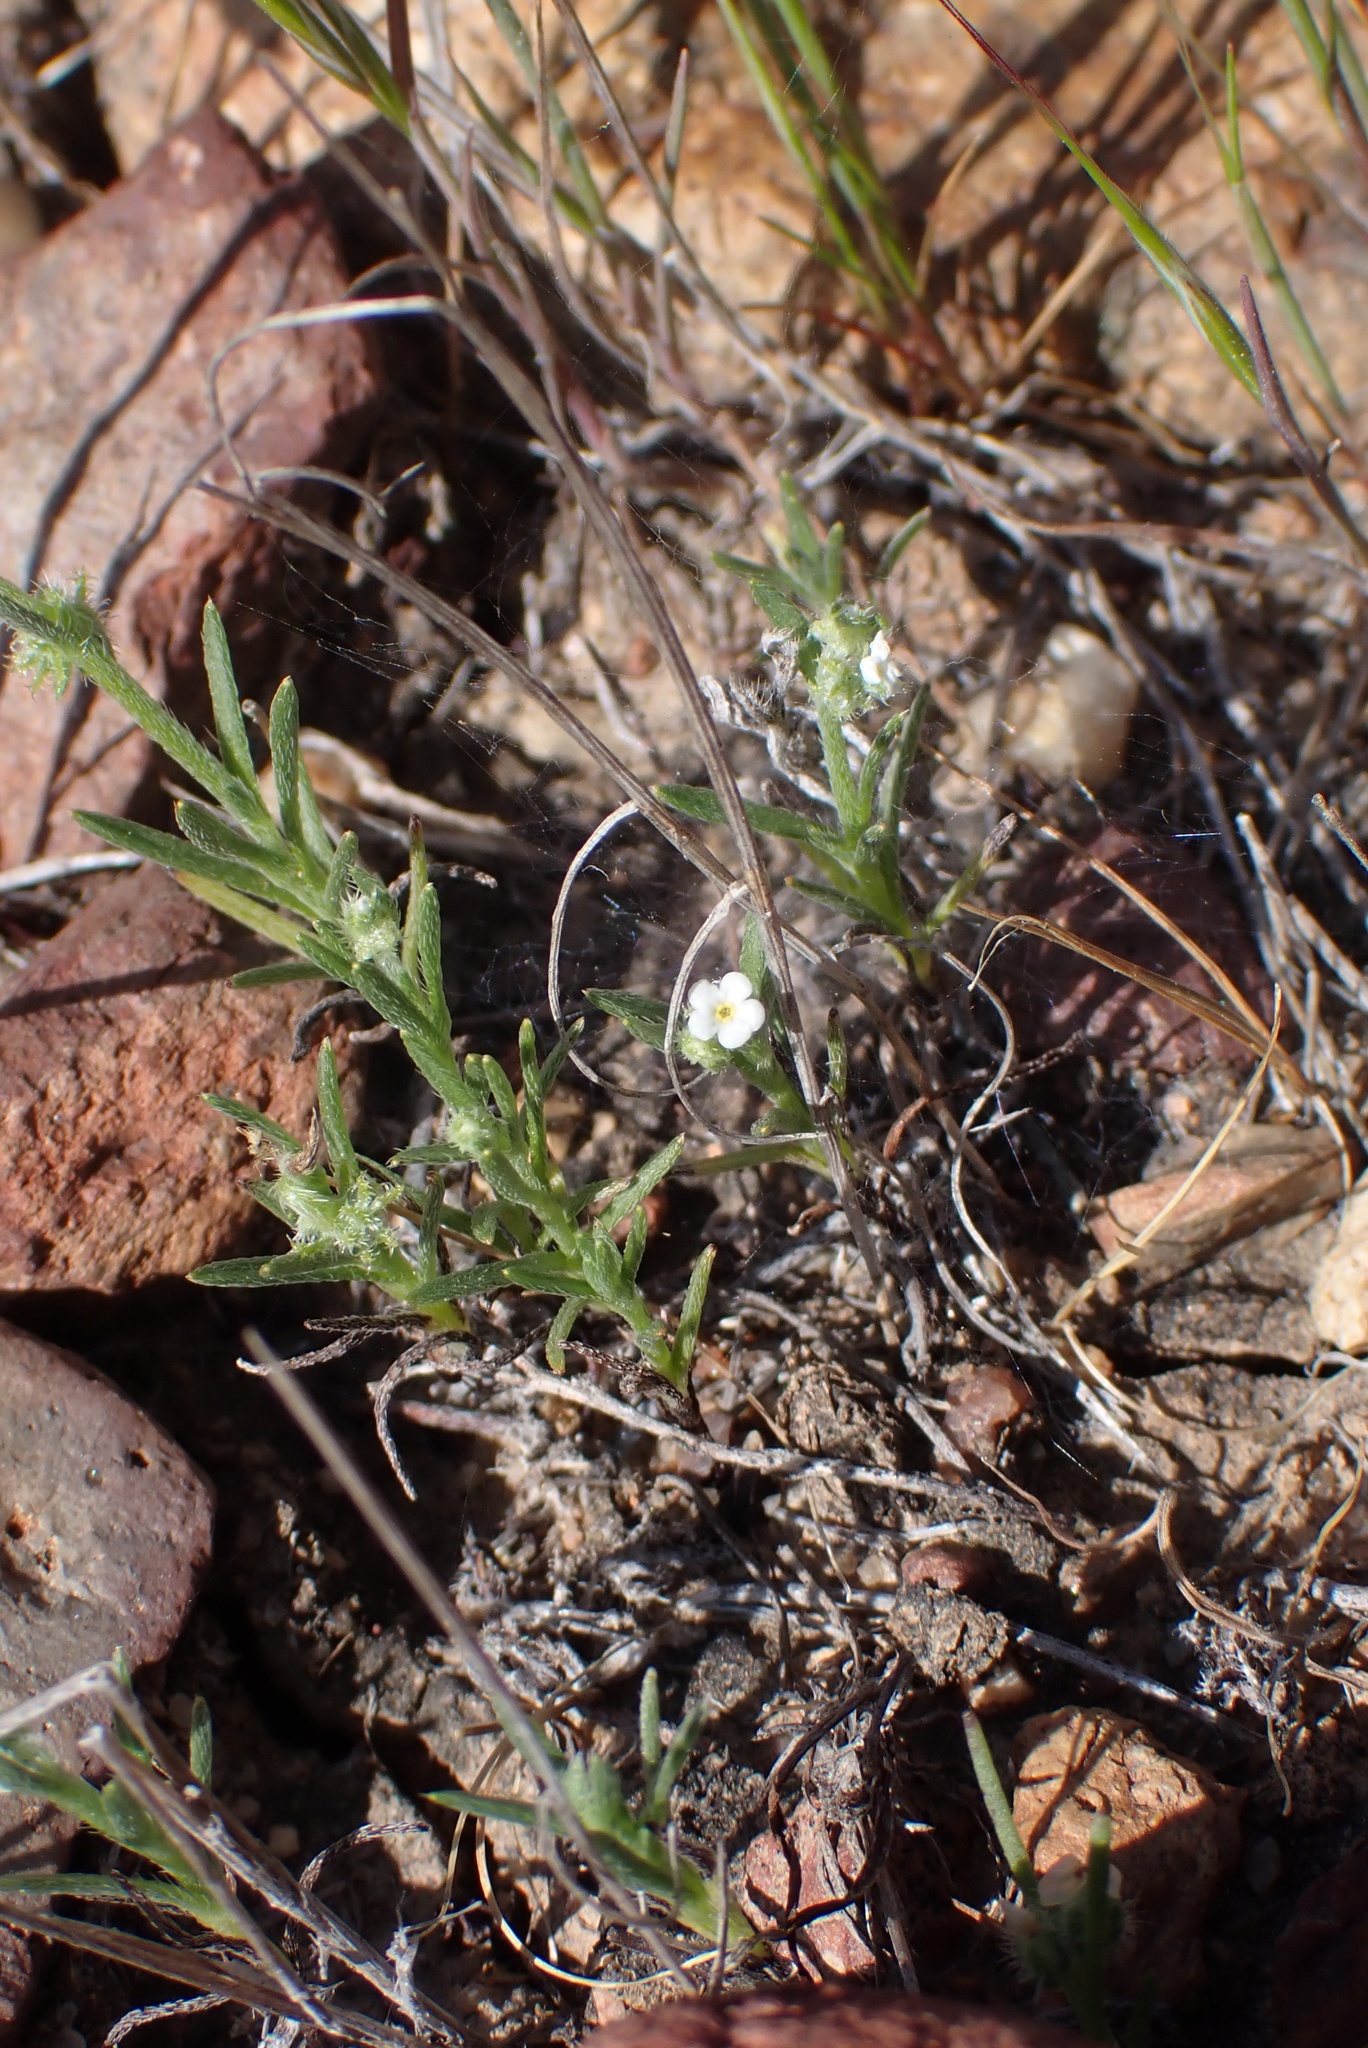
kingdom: Plantae
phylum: Tracheophyta
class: Magnoliopsida
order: Boraginales
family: Boraginaceae
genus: Harpagonella
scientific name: Harpagonella palmeri
